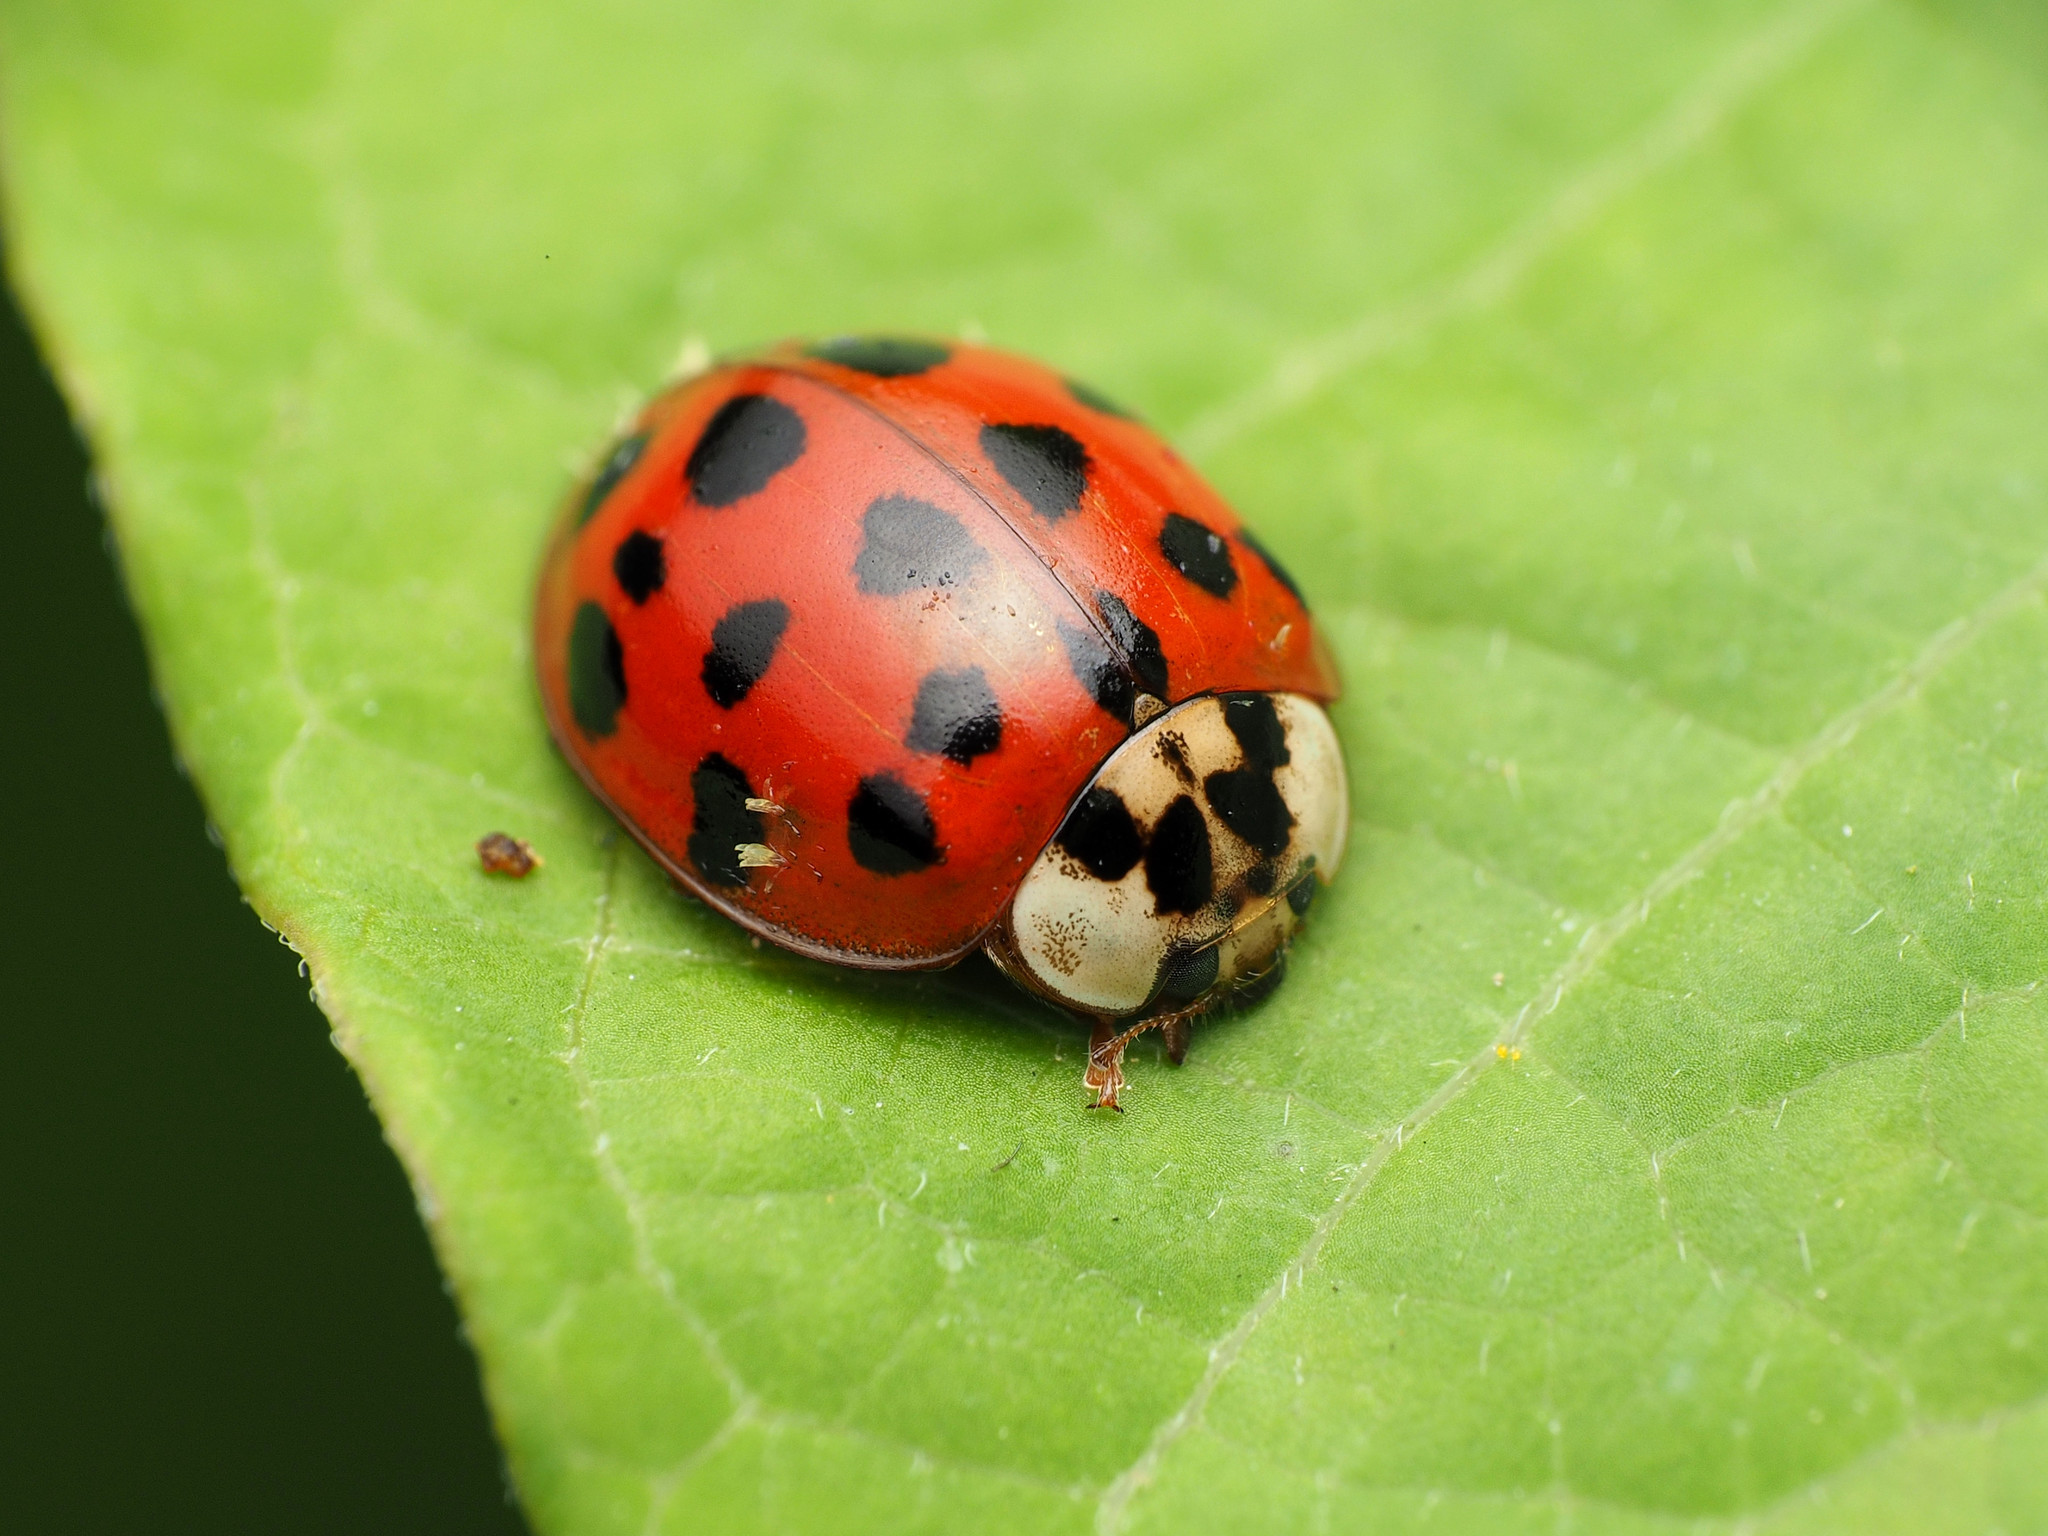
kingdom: Animalia
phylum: Arthropoda
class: Insecta
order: Coleoptera
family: Coccinellidae
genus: Harmonia
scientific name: Harmonia axyridis
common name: Harlequin ladybird
